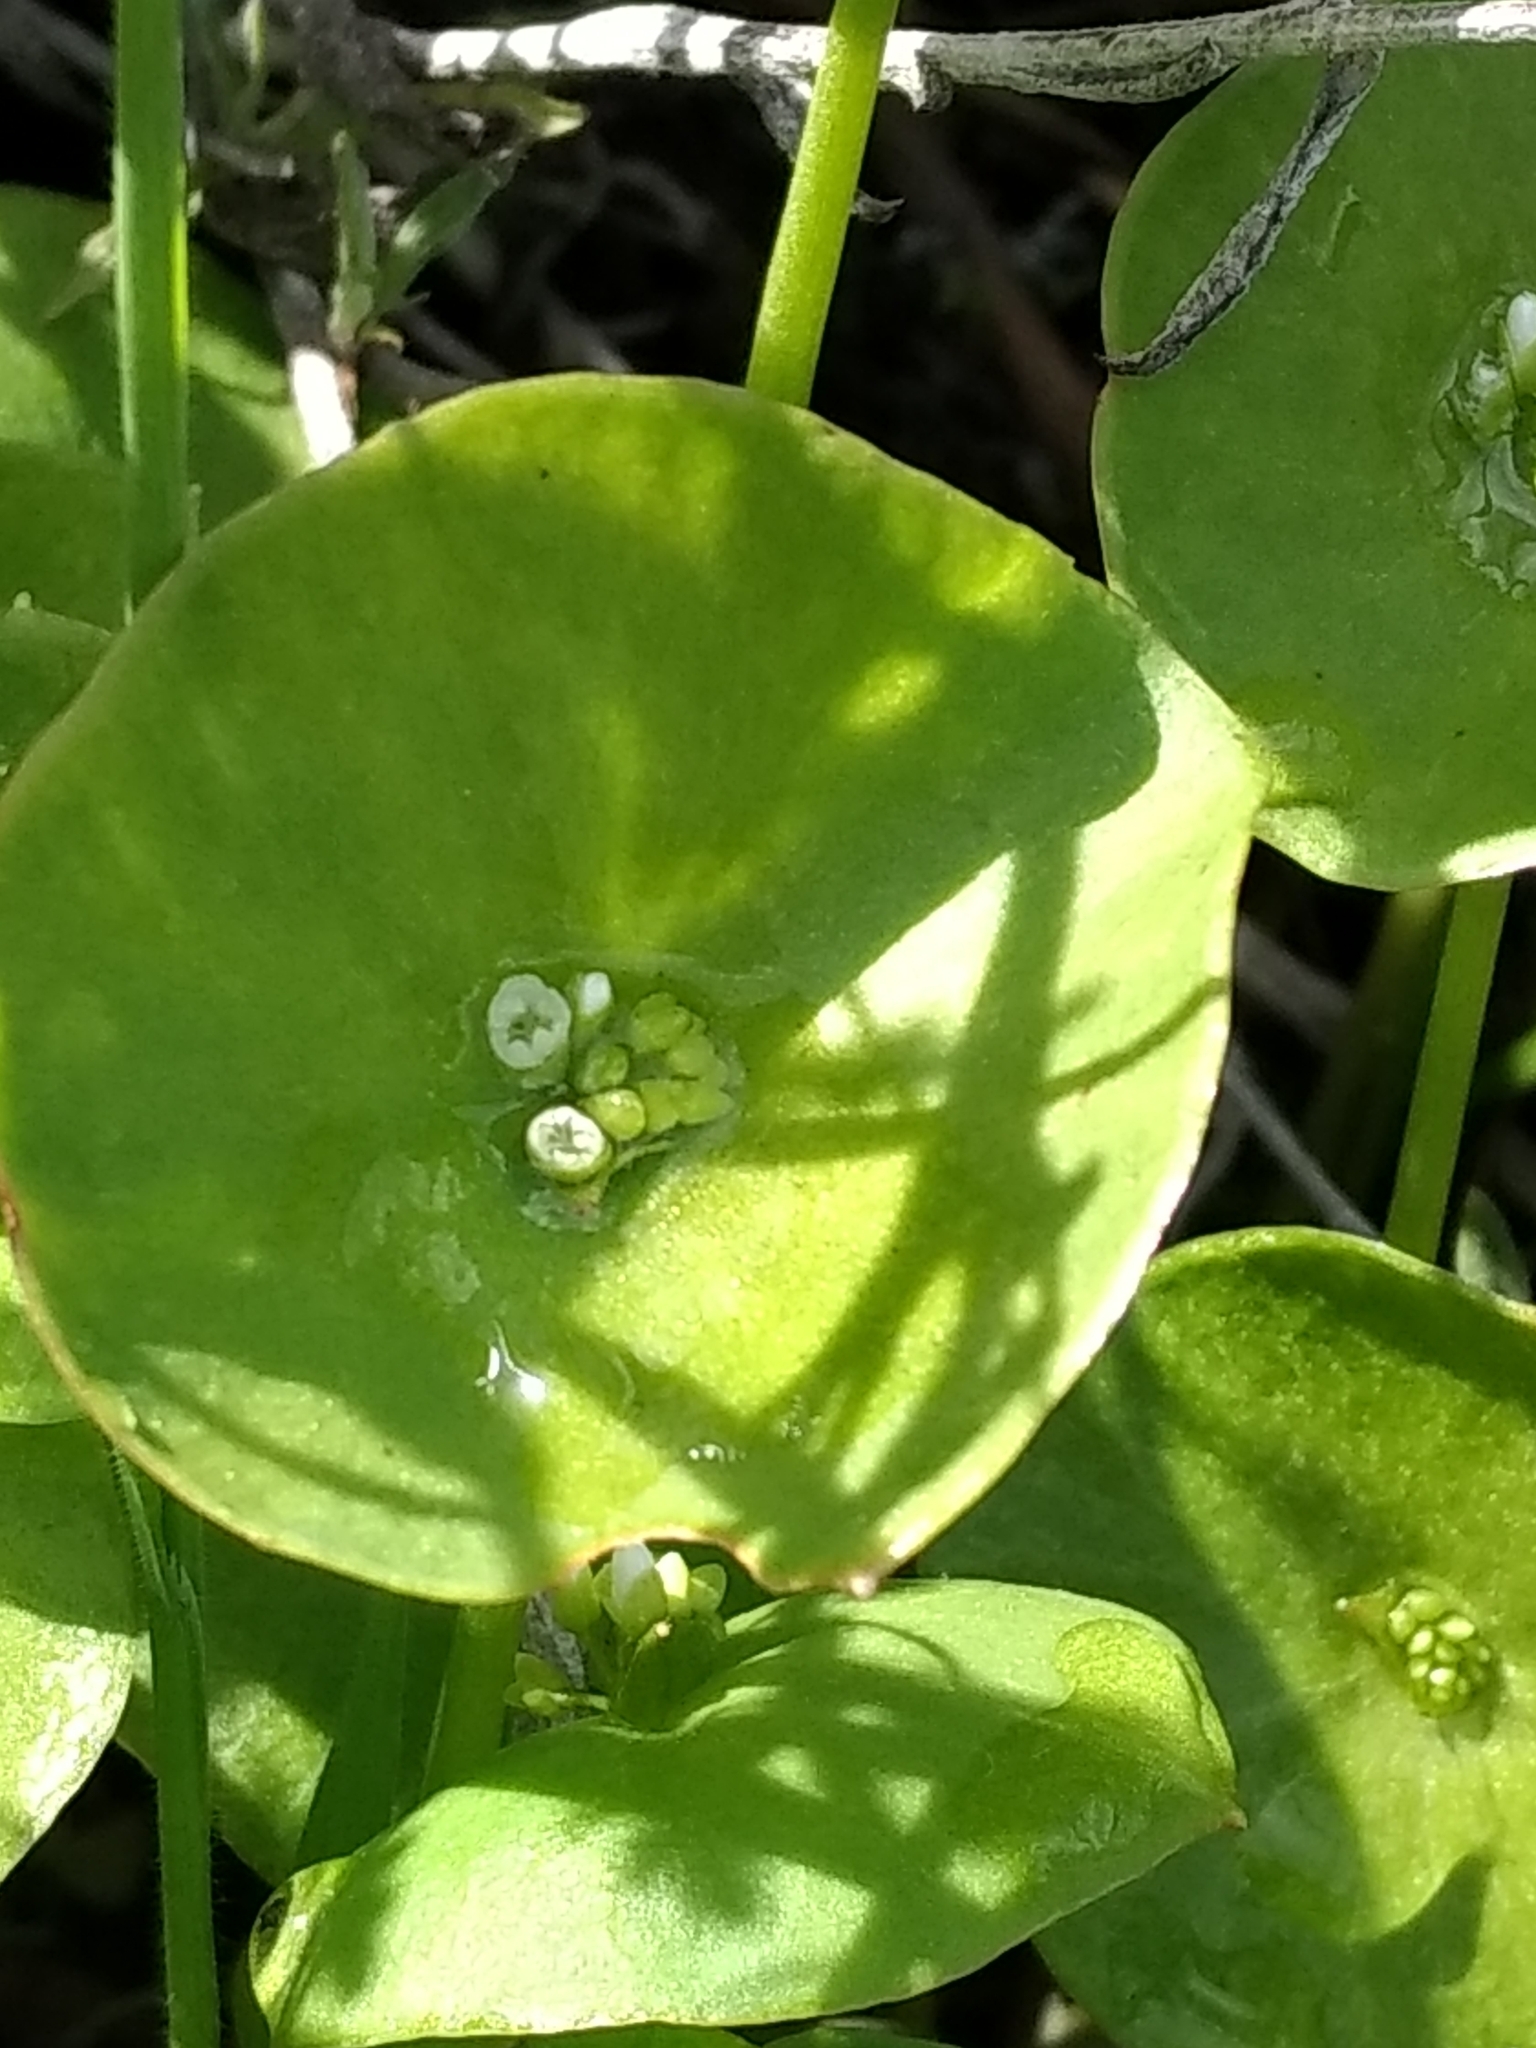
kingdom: Plantae
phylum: Tracheophyta
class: Magnoliopsida
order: Caryophyllales
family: Montiaceae
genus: Claytonia
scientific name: Claytonia perfoliata
